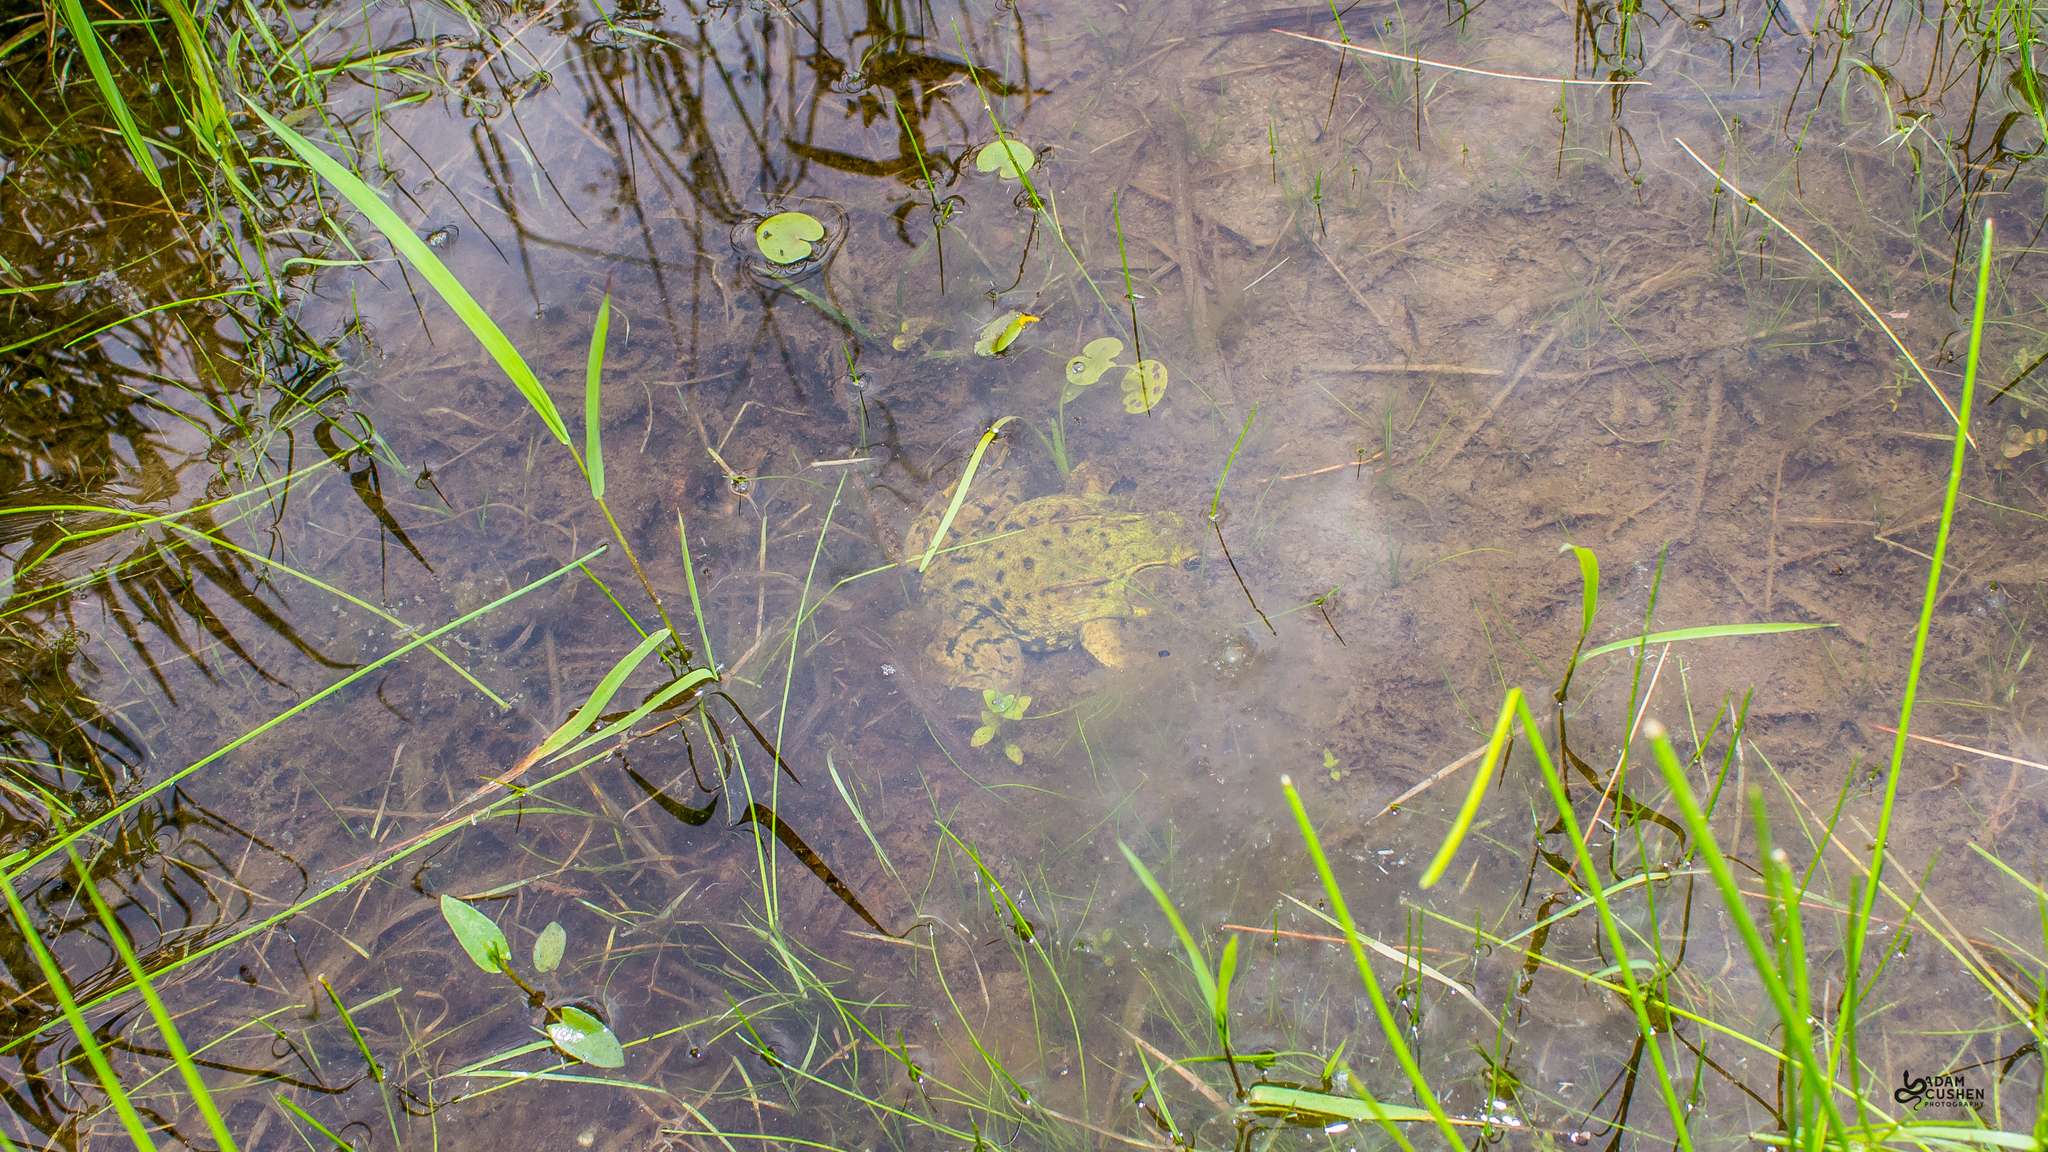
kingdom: Animalia
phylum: Chordata
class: Amphibia
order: Anura
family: Ranidae
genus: Lithobates
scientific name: Lithobates clamitans
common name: Green frog
